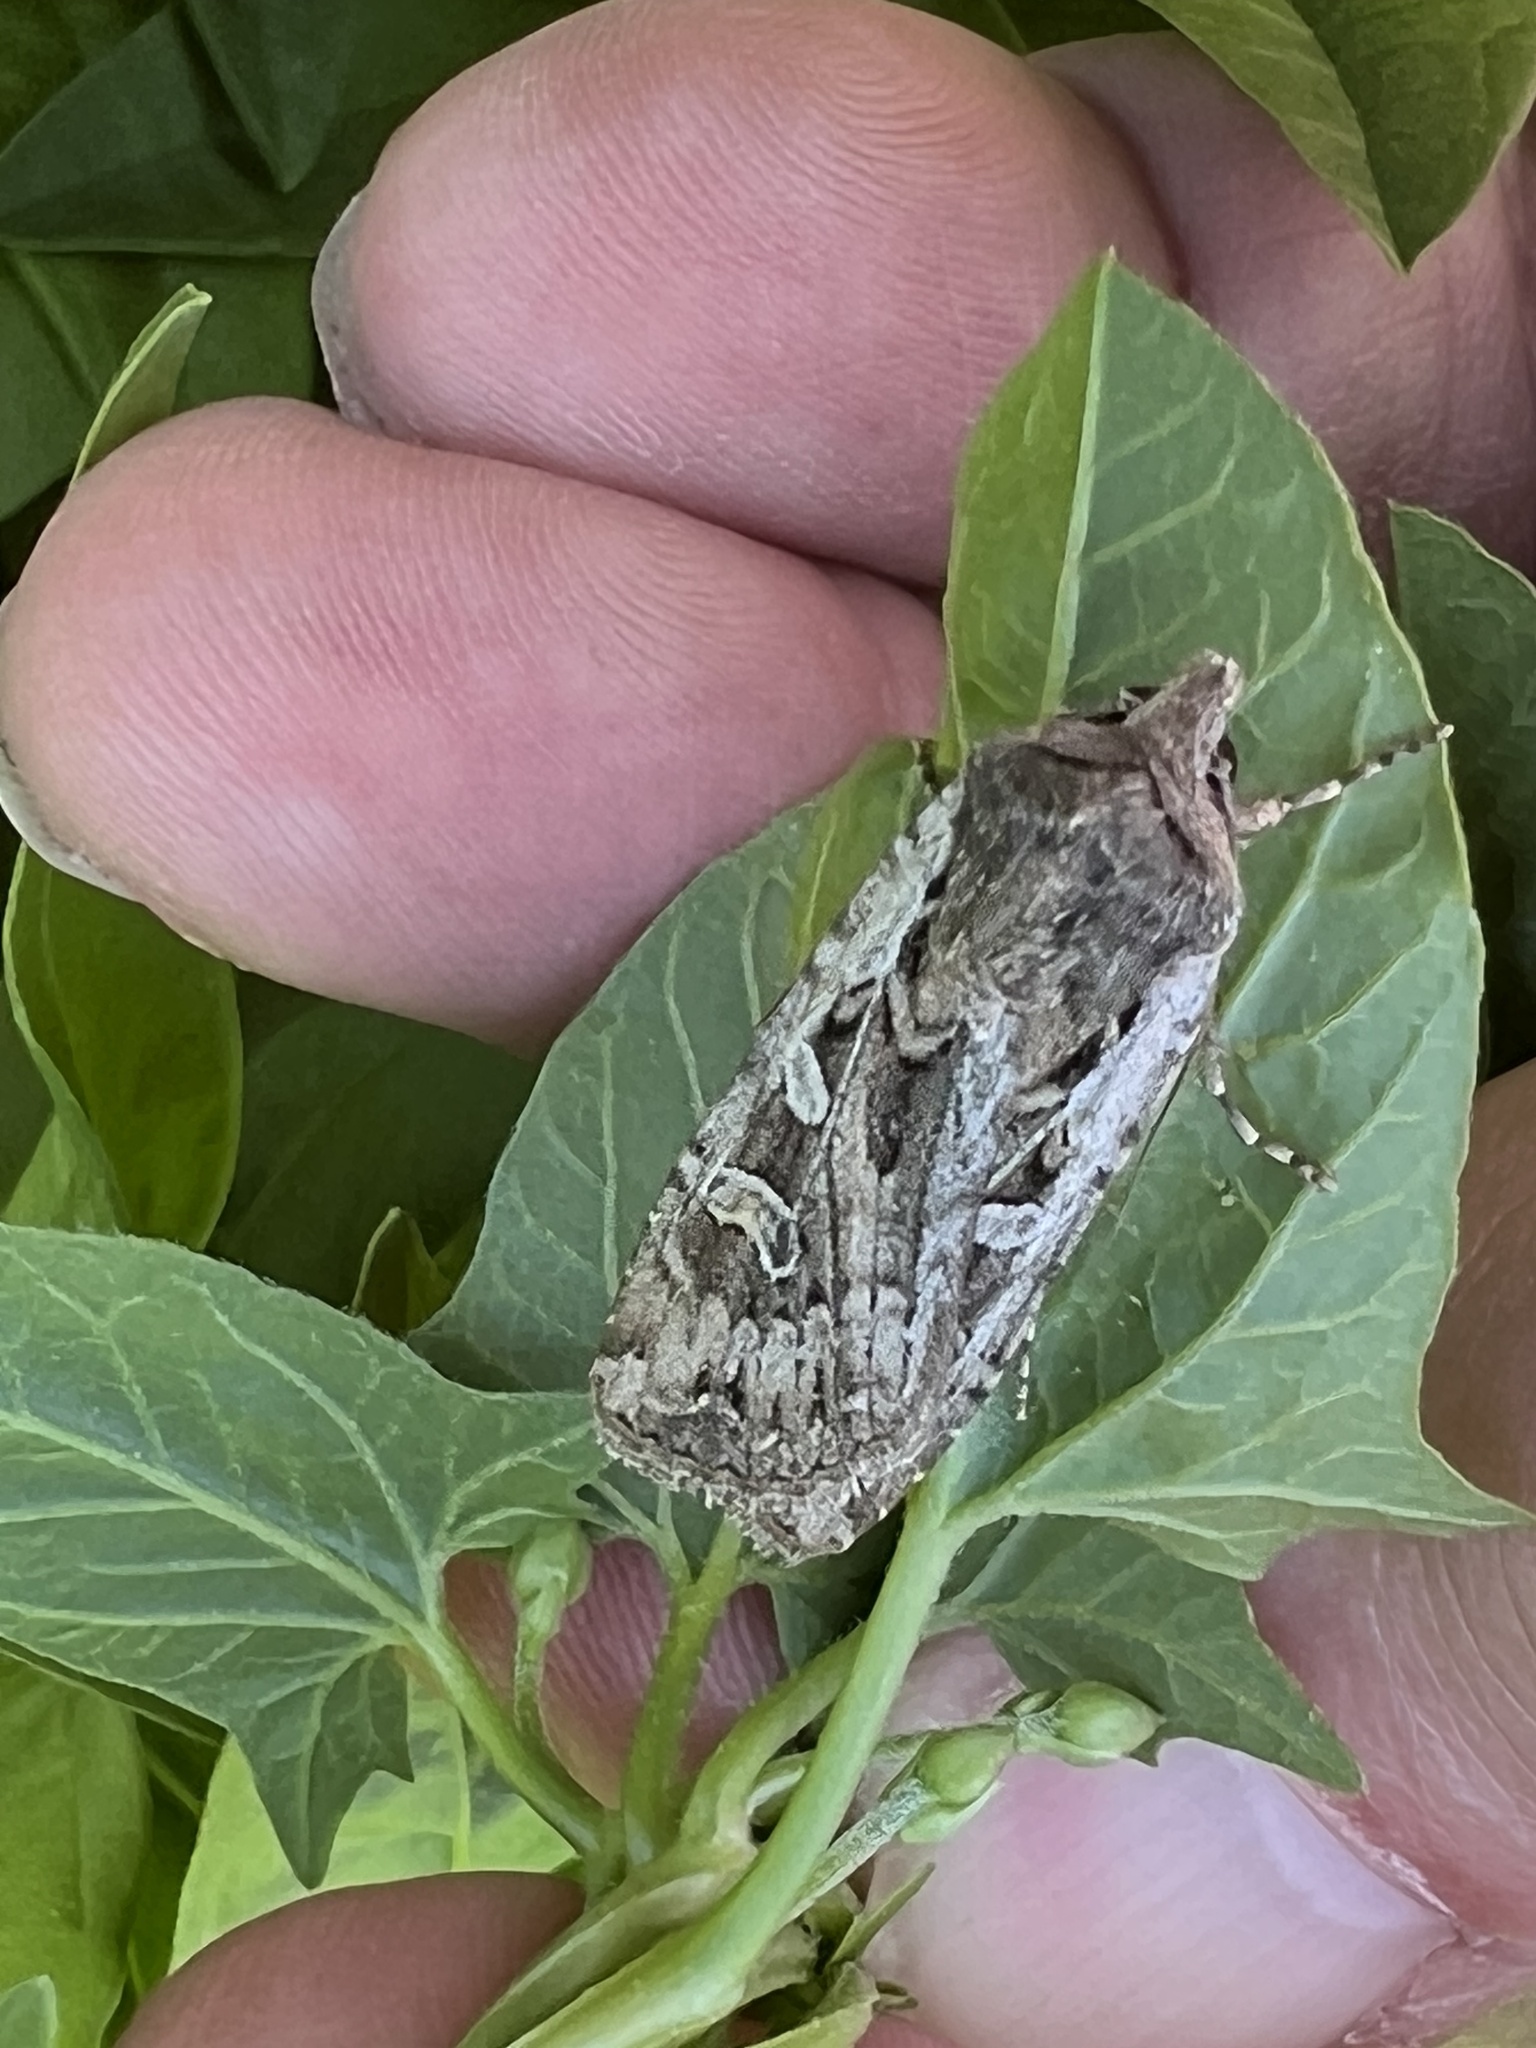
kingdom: Animalia
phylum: Arthropoda
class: Insecta
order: Lepidoptera
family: Noctuidae
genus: Euxoa
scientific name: Euxoa auxiliaris
